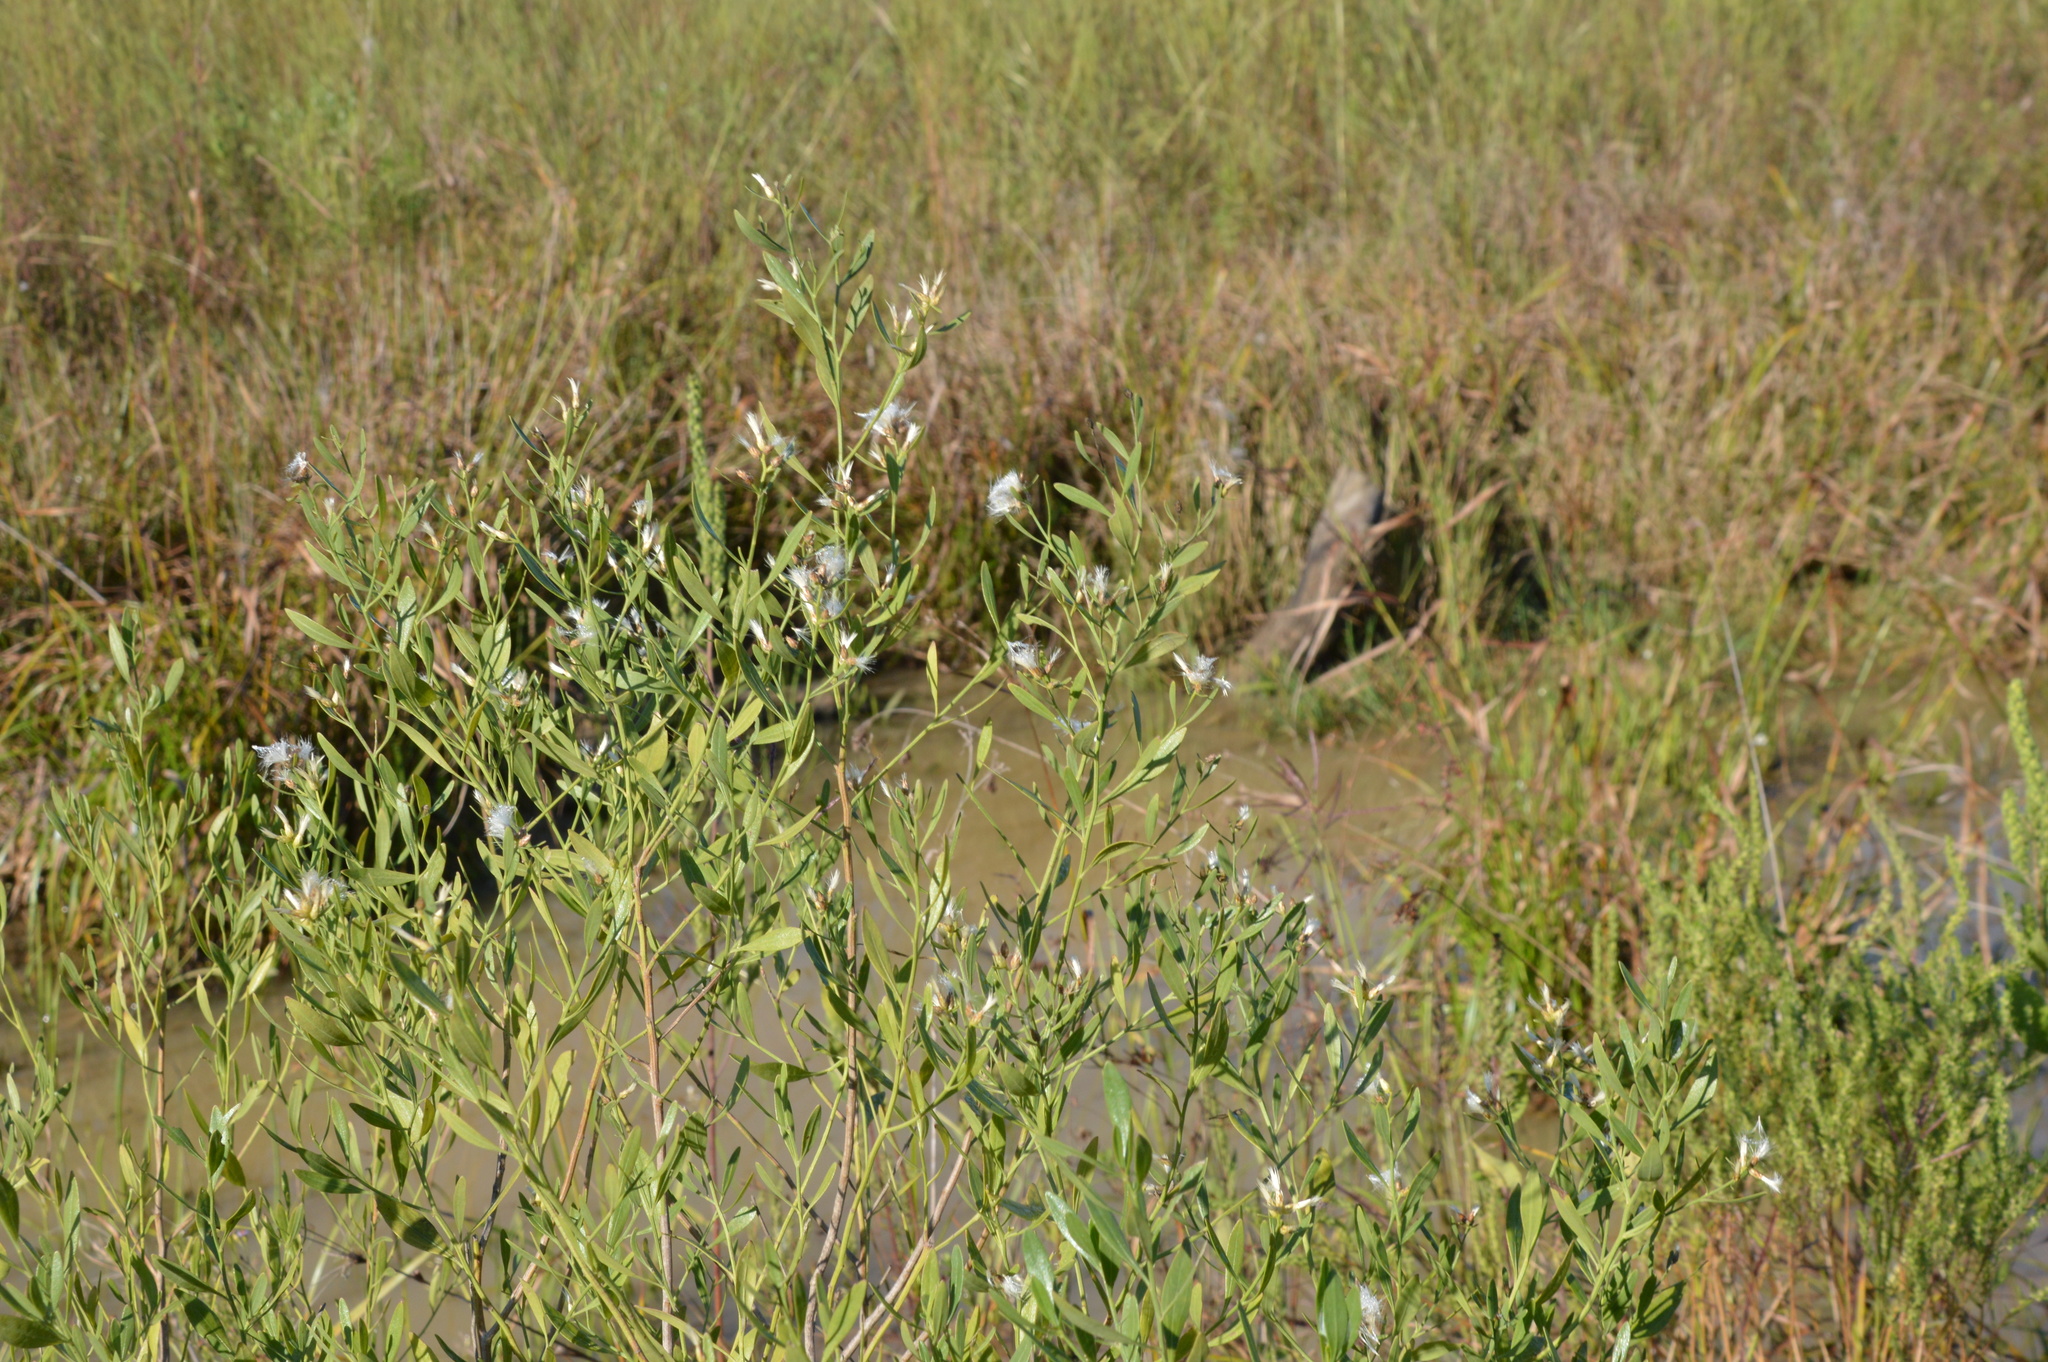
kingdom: Plantae
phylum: Tracheophyta
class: Magnoliopsida
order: Asterales
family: Asteraceae
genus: Baccharis
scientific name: Baccharis halimifolia
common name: Eastern baccharis
